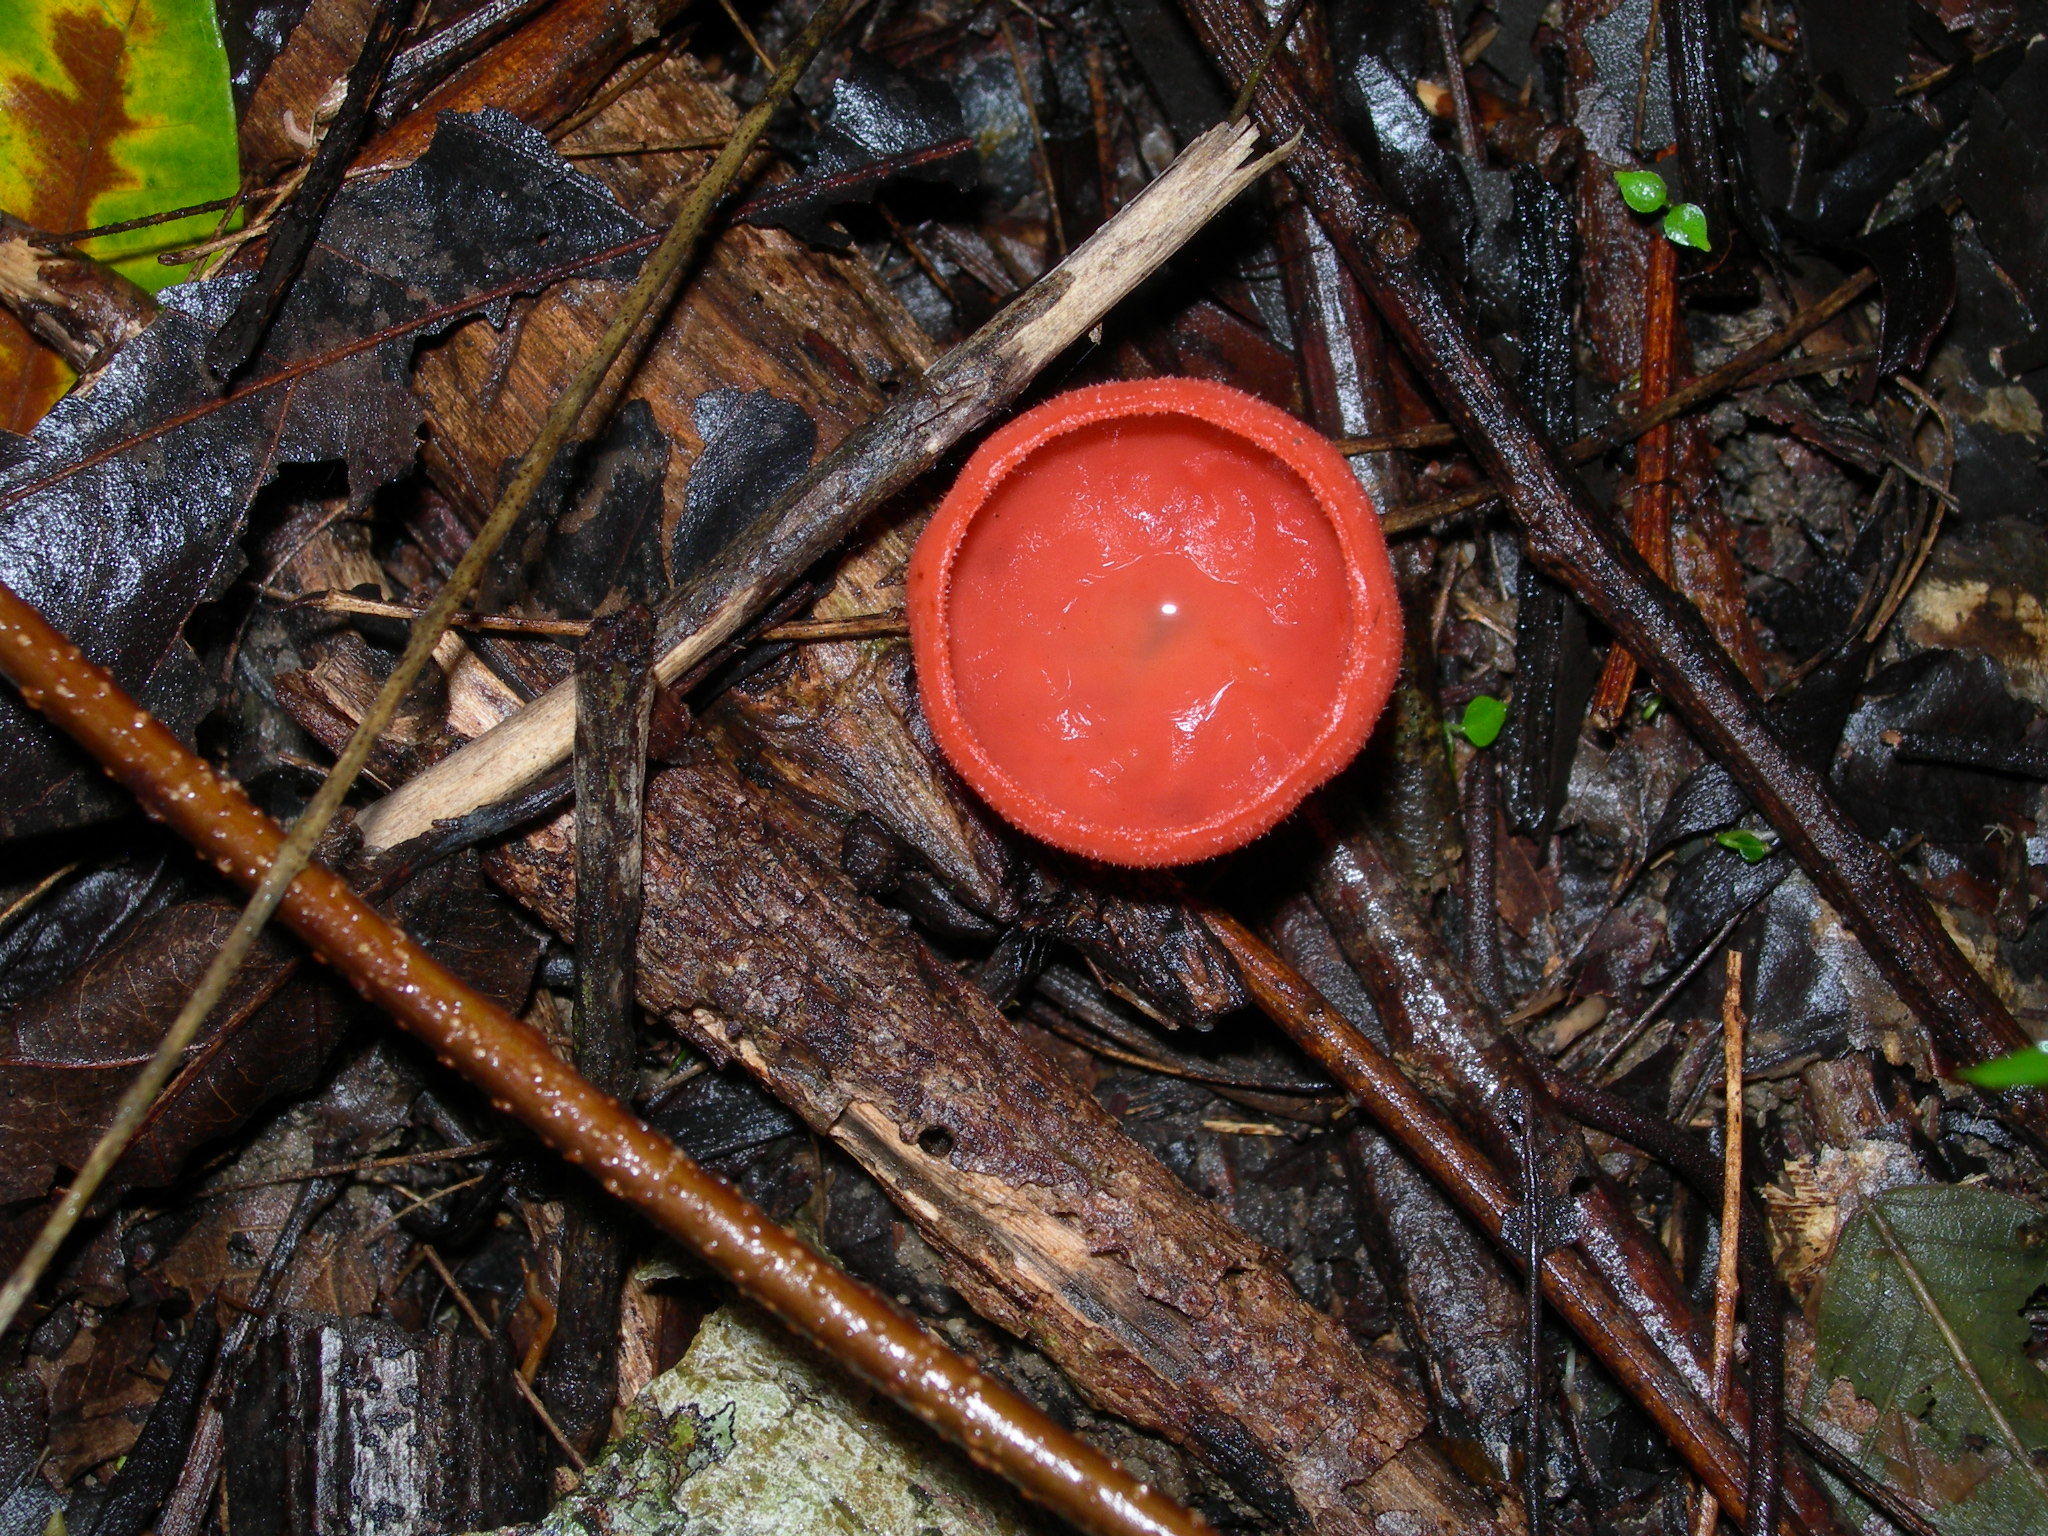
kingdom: Fungi
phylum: Ascomycota
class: Pezizomycetes
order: Pezizales
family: Sarcoscyphaceae
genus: Cookeina
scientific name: Cookeina sulcipes
